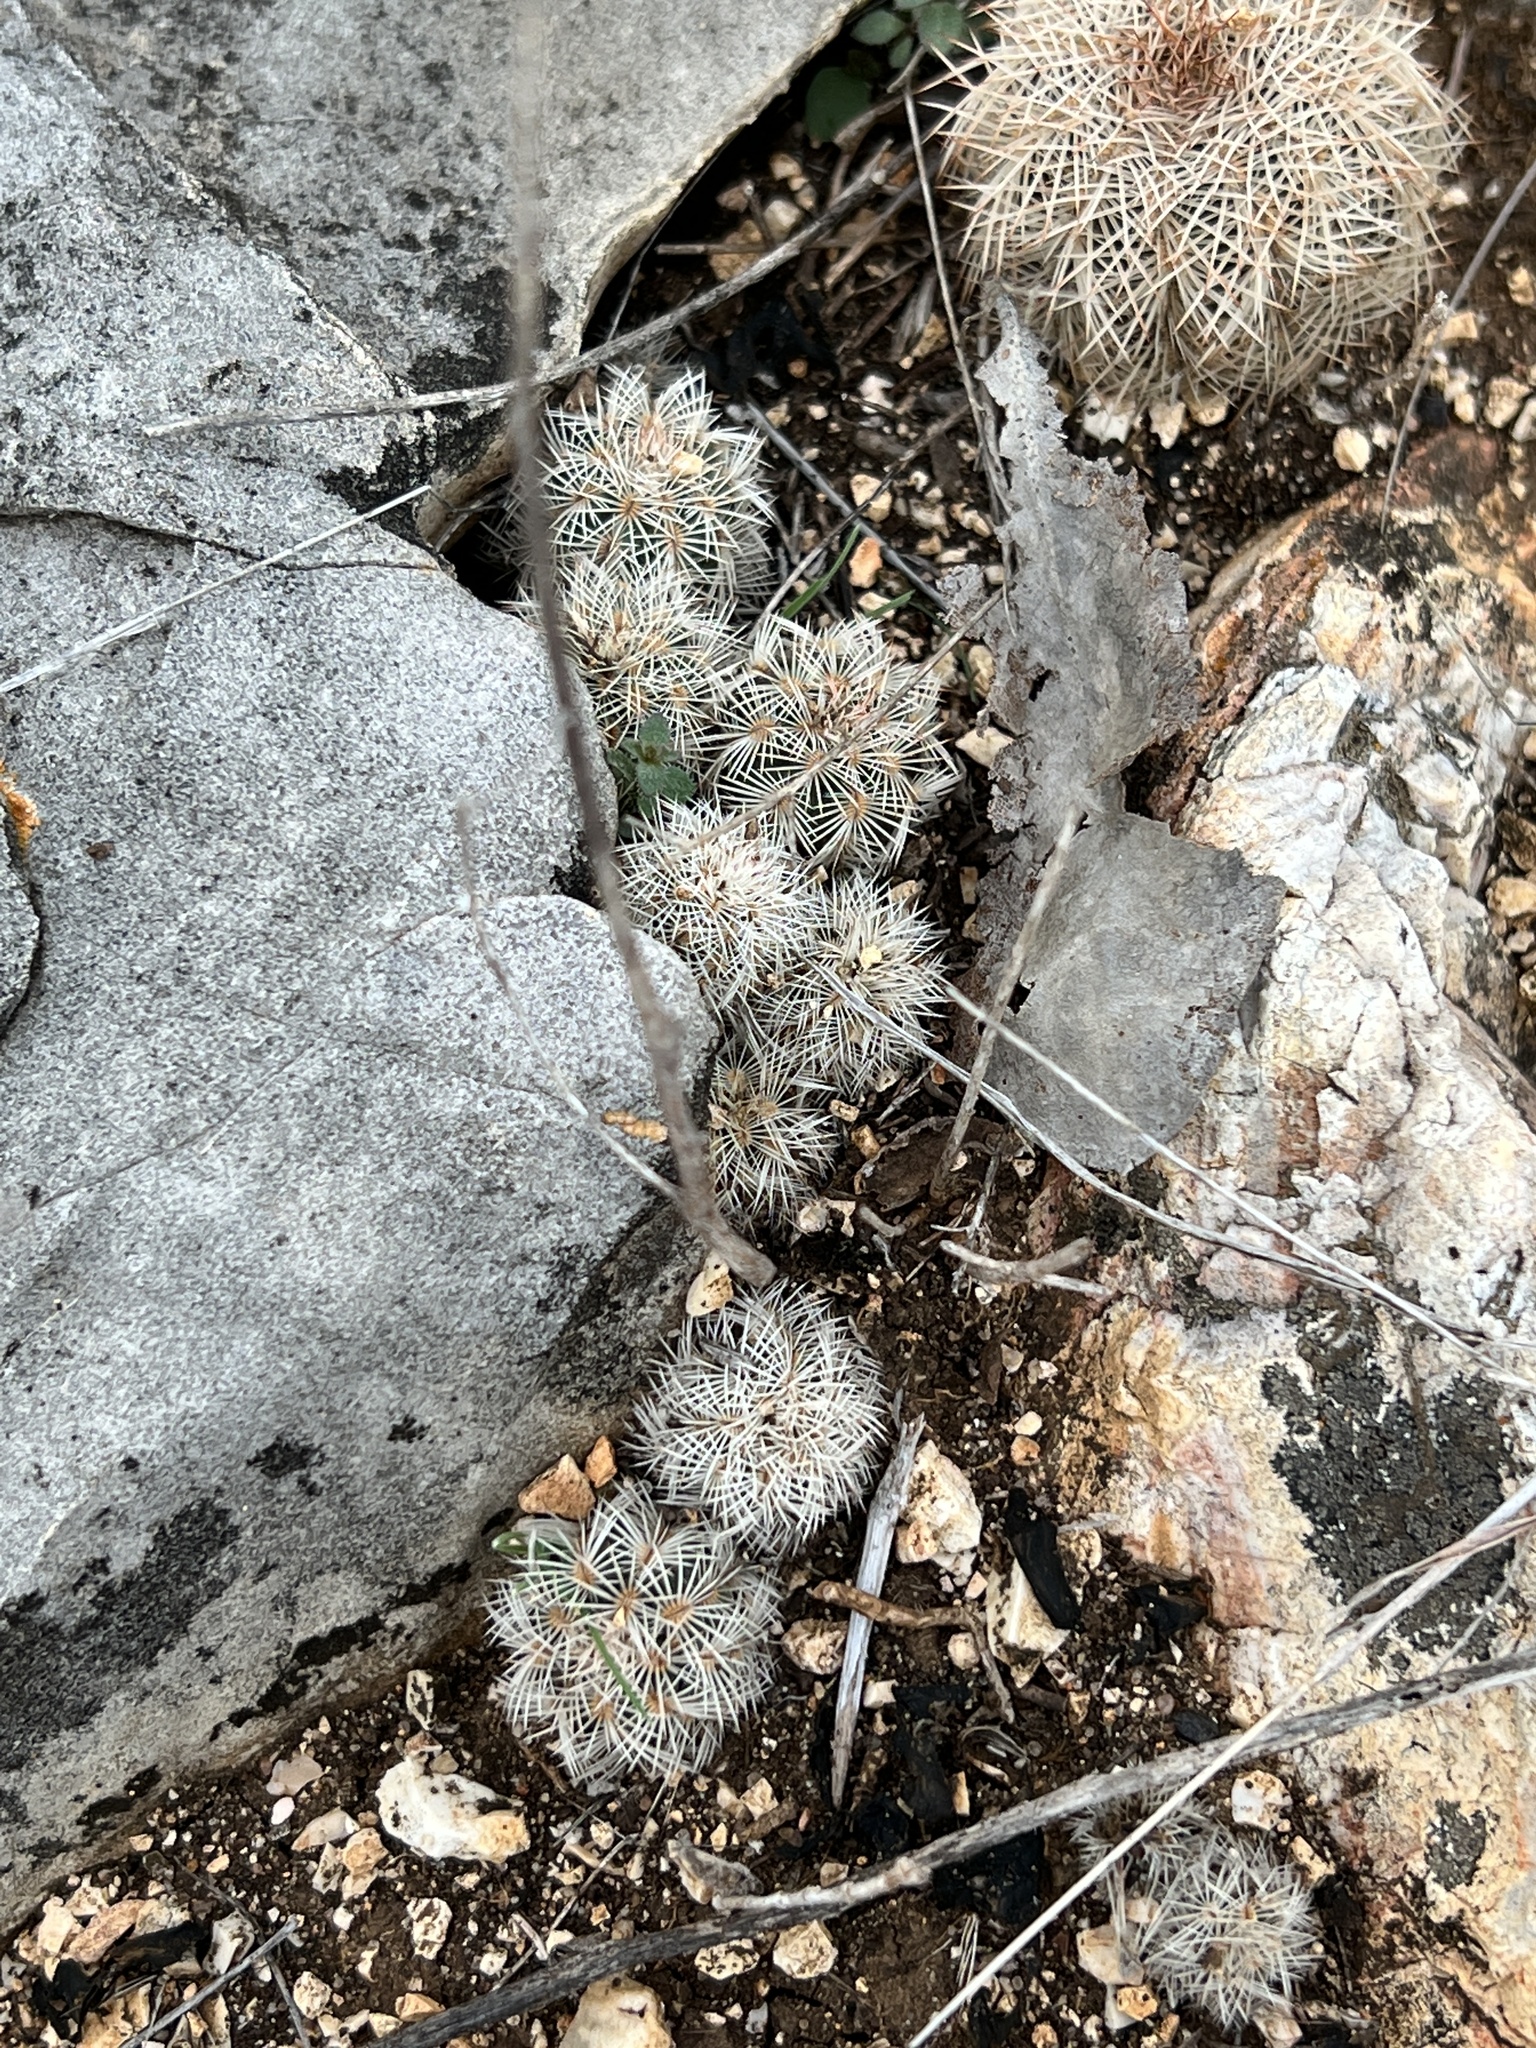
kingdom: Plantae
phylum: Tracheophyta
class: Magnoliopsida
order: Caryophyllales
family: Cactaceae
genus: Echinocereus
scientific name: Echinocereus reichenbachii
